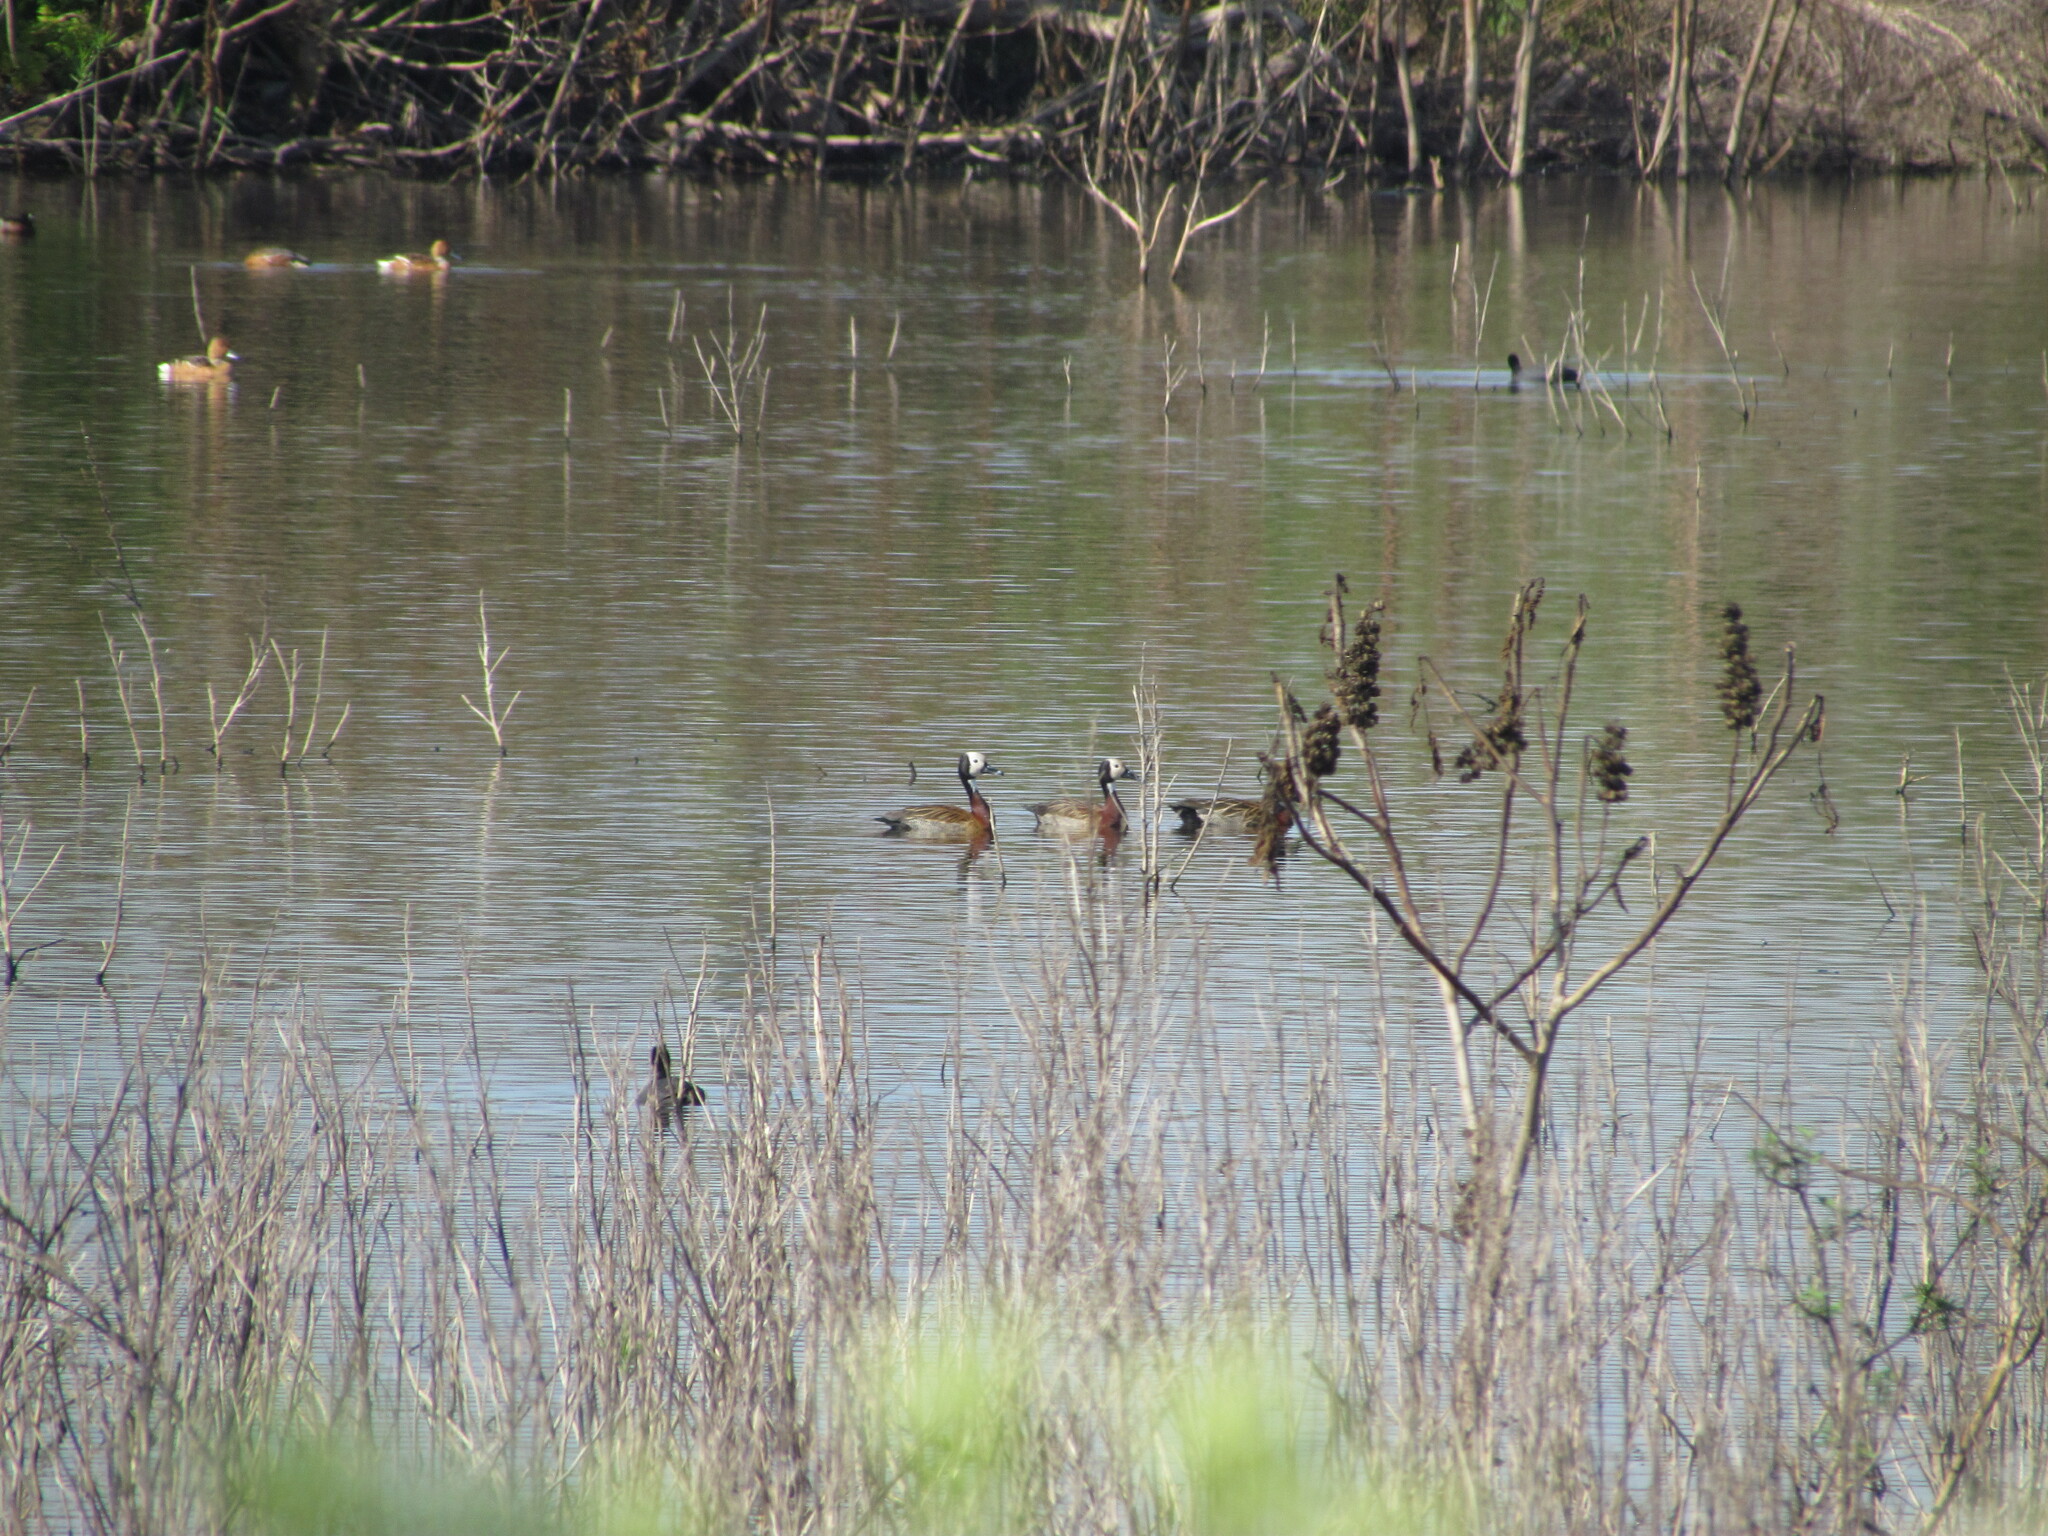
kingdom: Animalia
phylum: Chordata
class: Aves
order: Anseriformes
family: Anatidae
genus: Dendrocygna
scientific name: Dendrocygna viduata
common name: White-faced whistling duck
